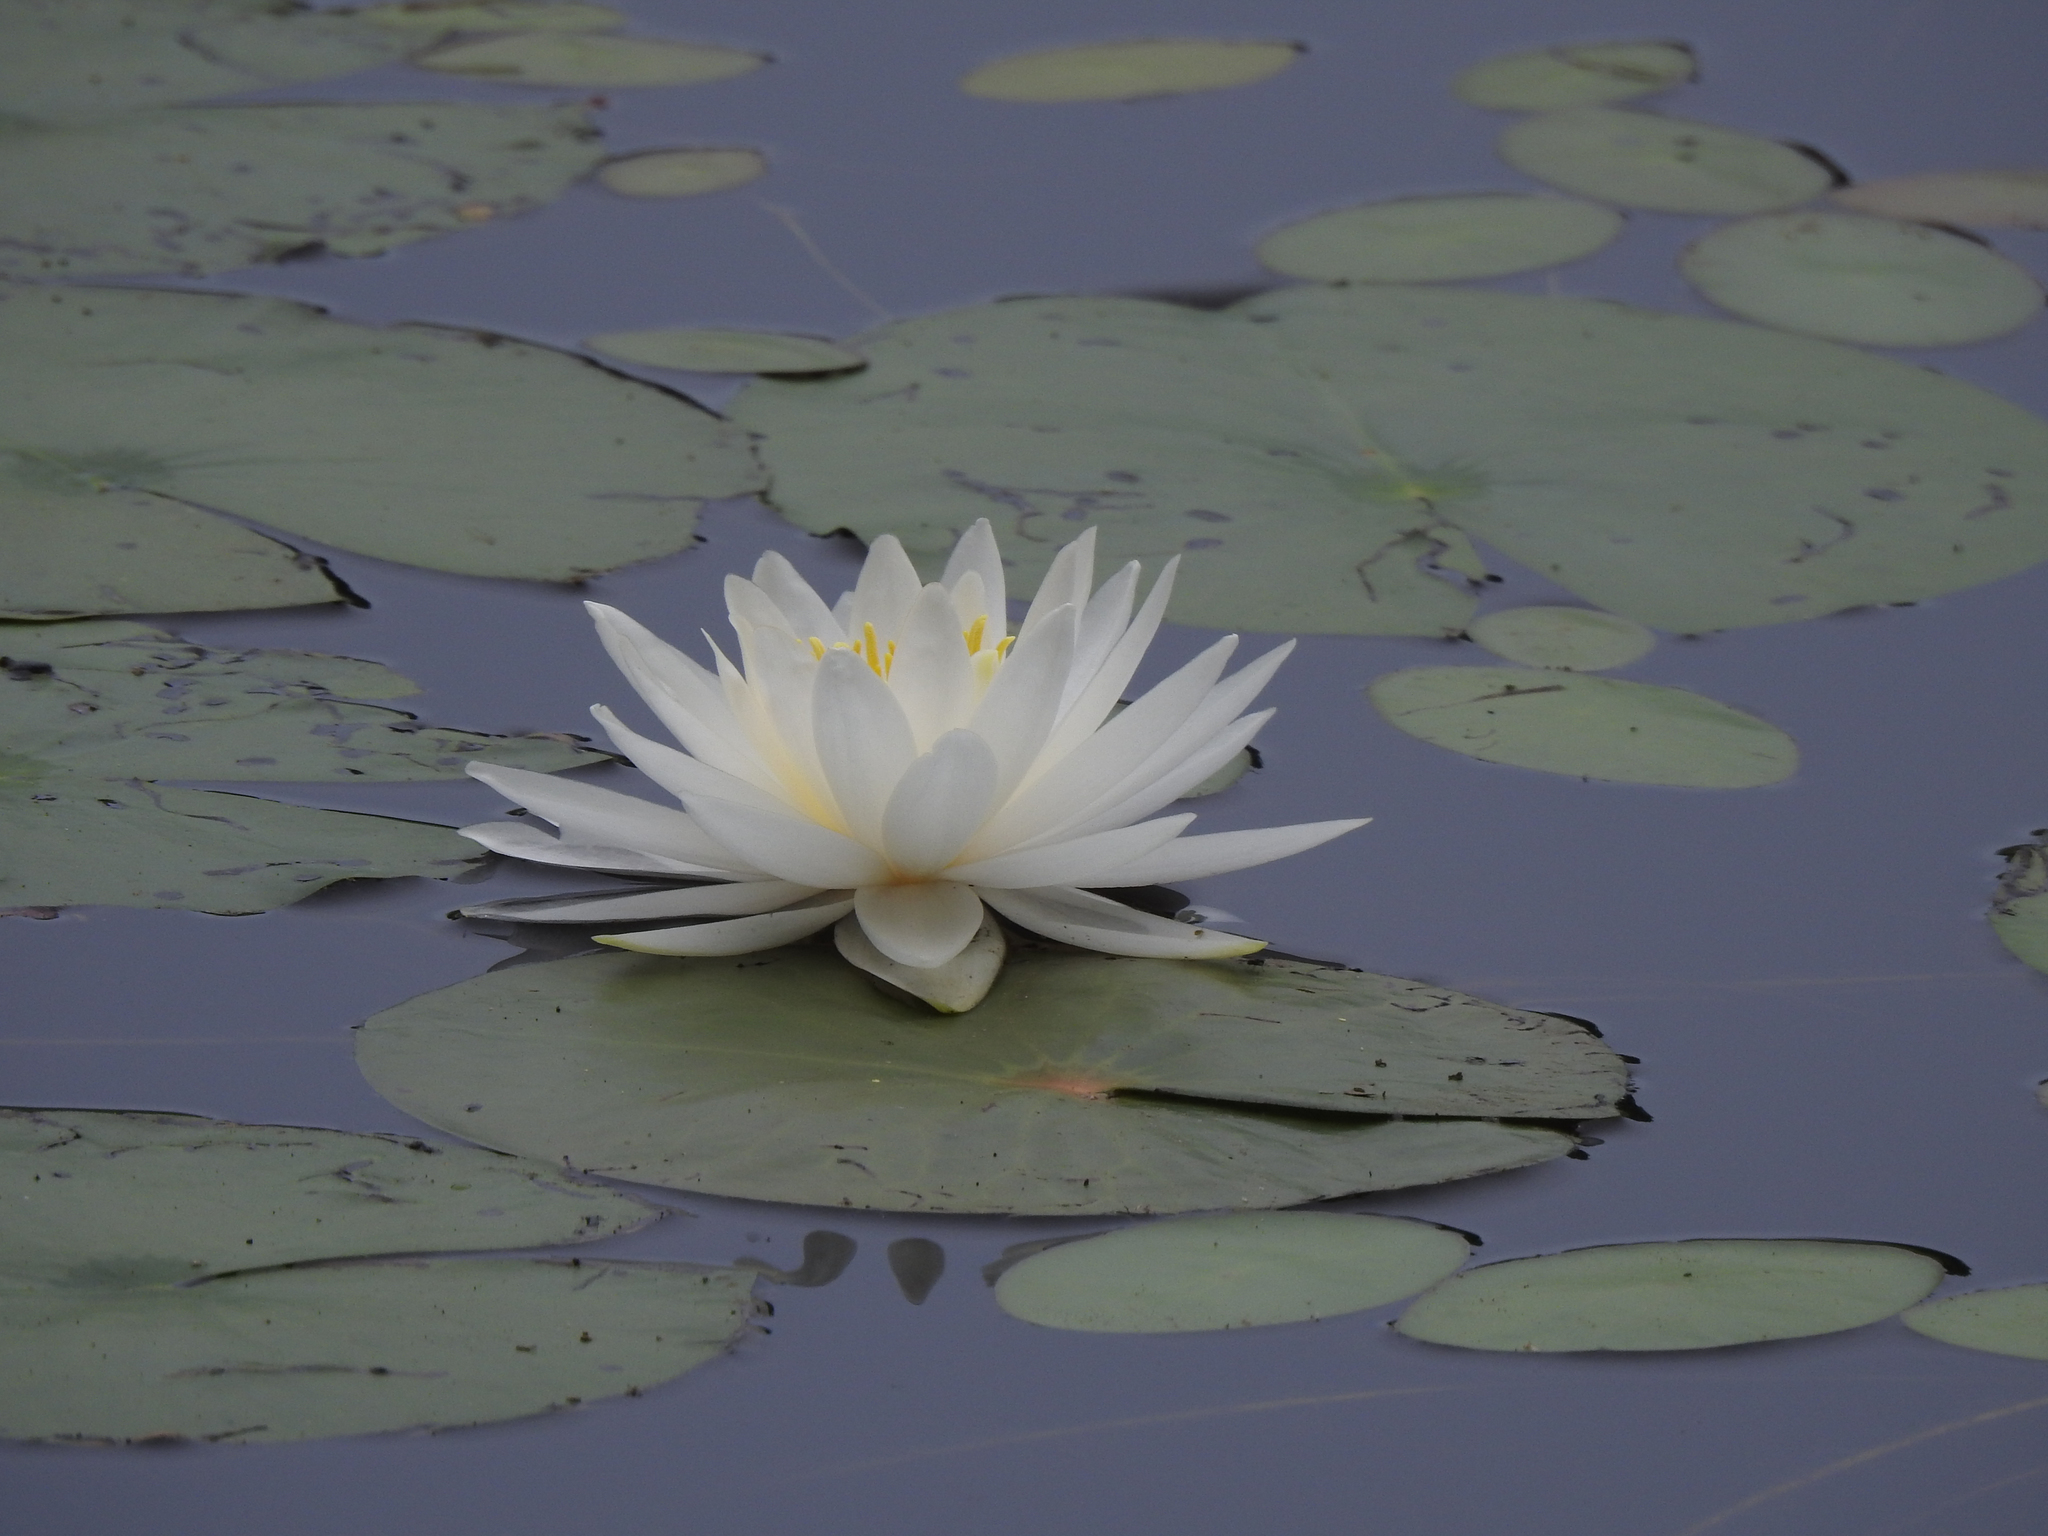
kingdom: Plantae
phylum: Tracheophyta
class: Magnoliopsida
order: Nymphaeales
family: Nymphaeaceae
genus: Nymphaea
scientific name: Nymphaea odorata
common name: Fragrant water-lily
